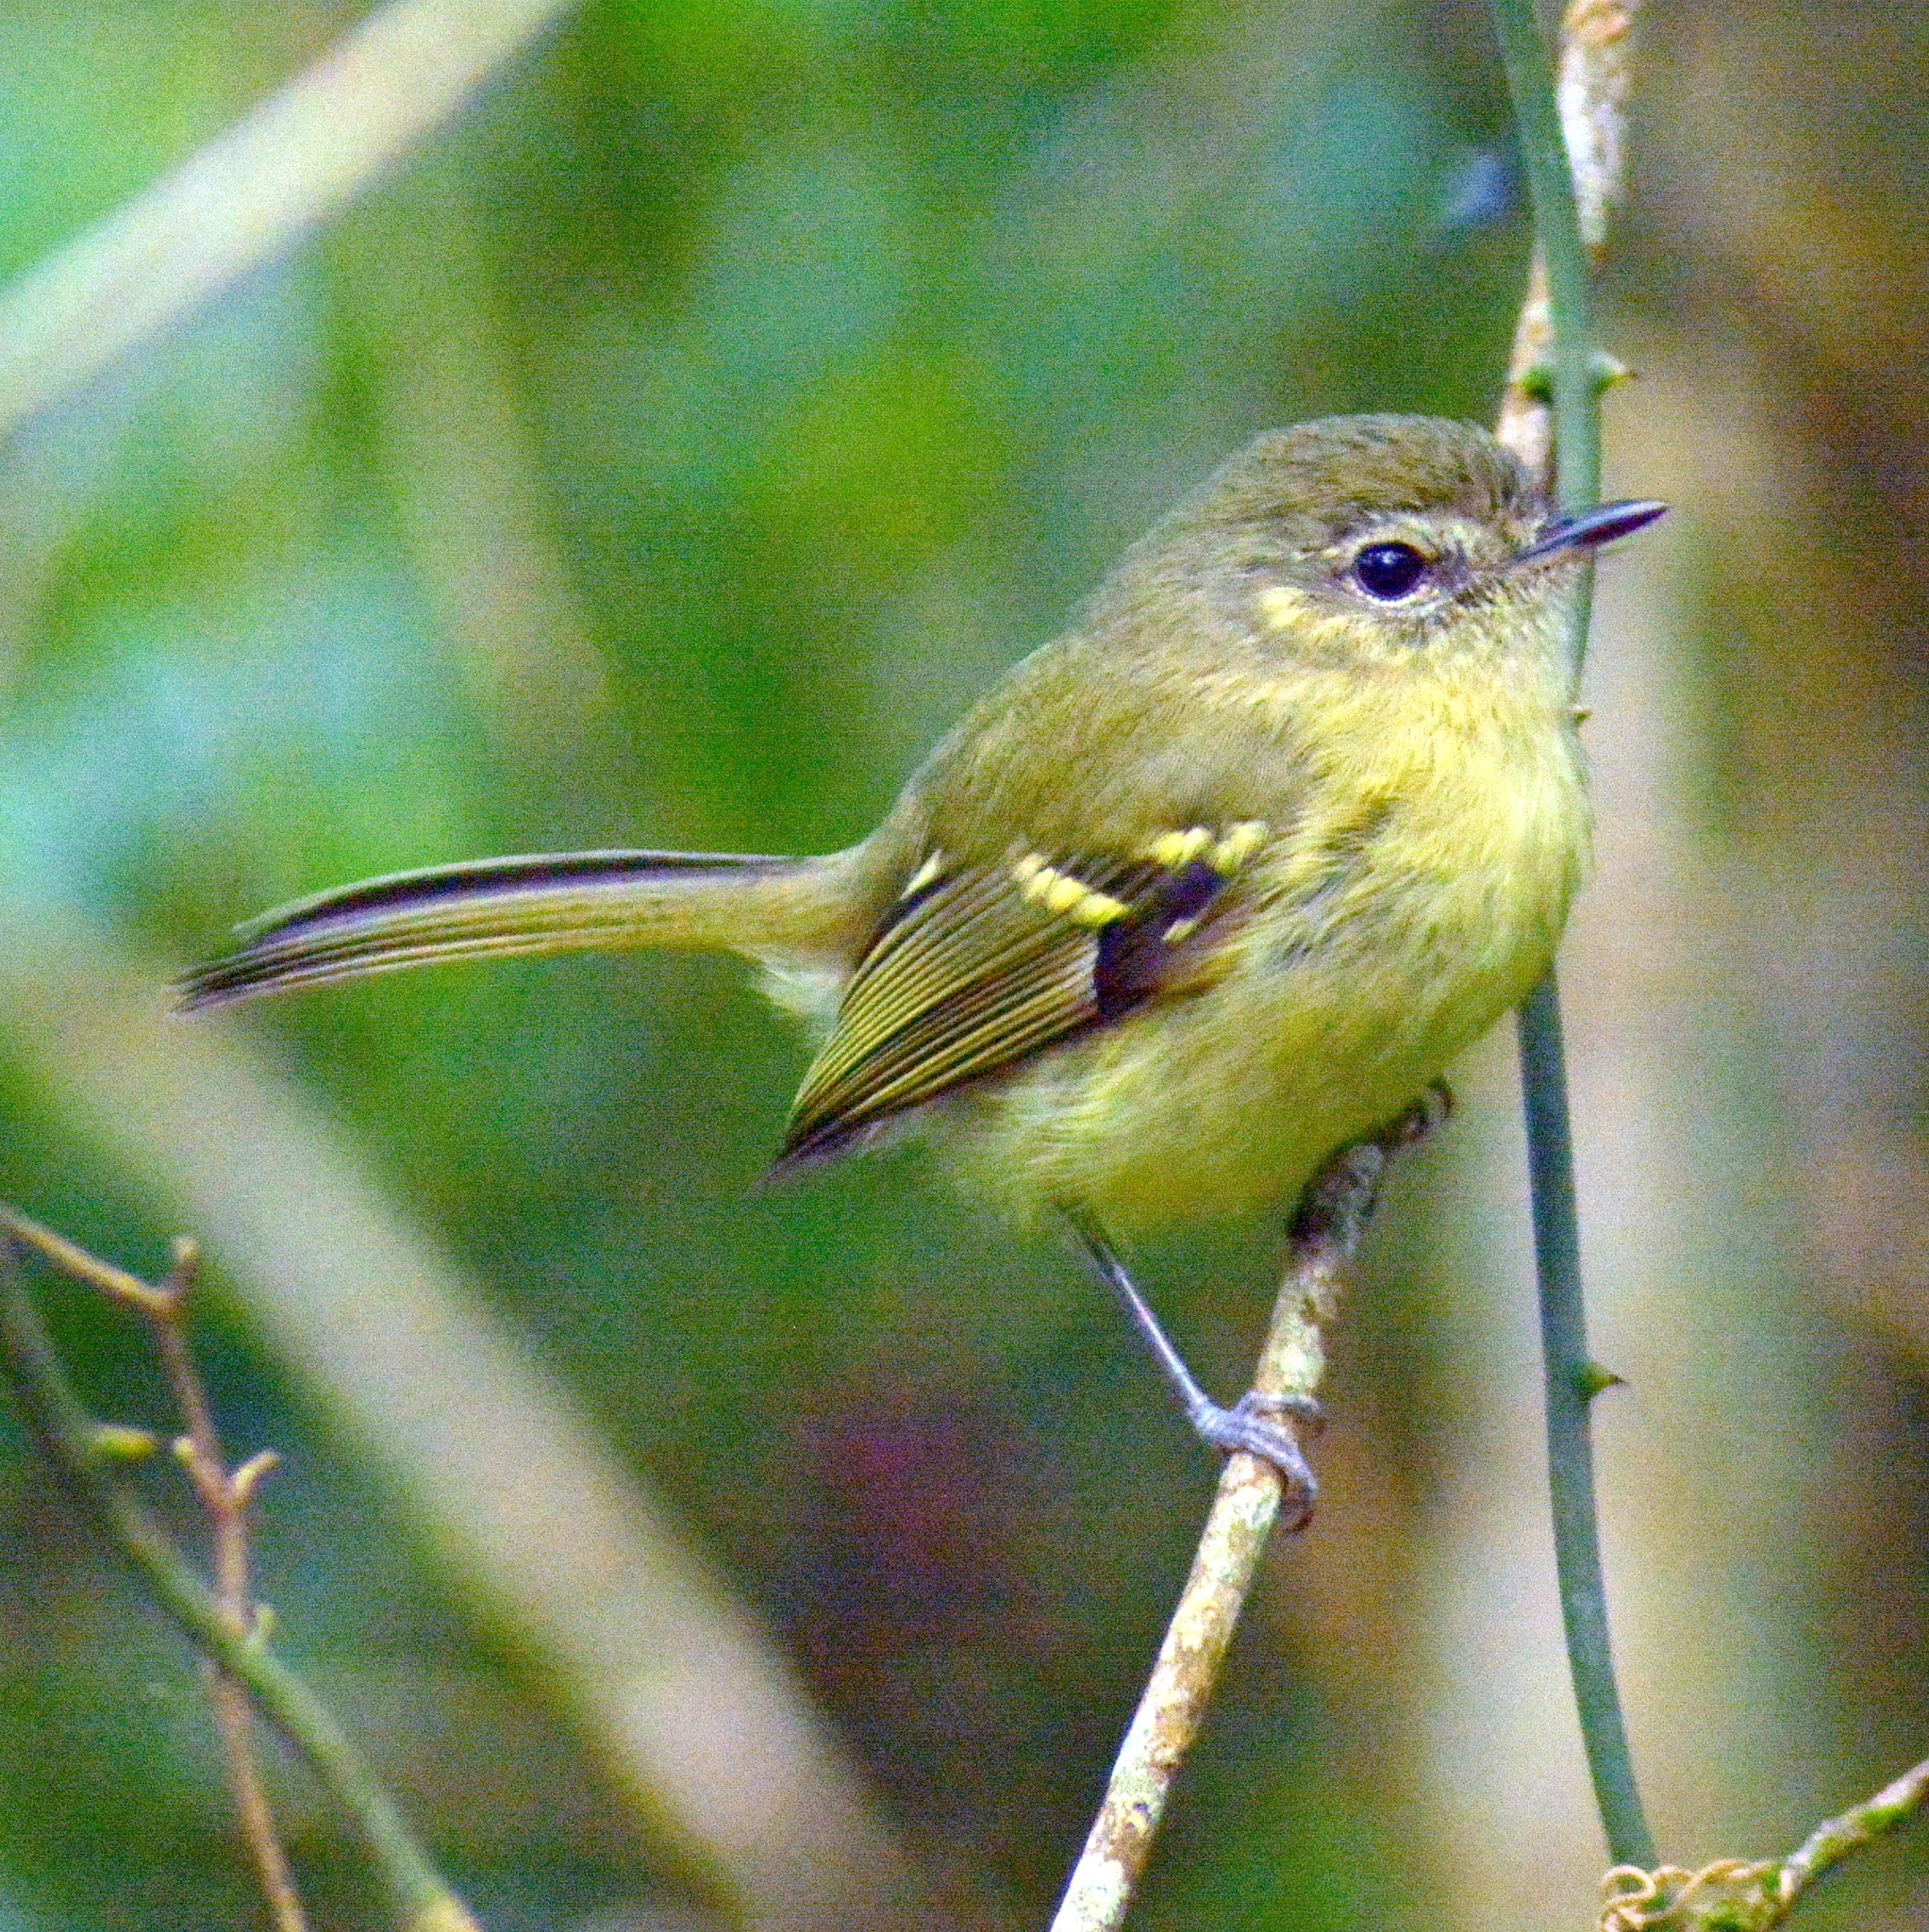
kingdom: Animalia
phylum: Chordata
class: Aves
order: Passeriformes
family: Tyrannidae
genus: Phylloscartes
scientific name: Phylloscartes ventralis
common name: Mottle-cheeked tyrannulet
